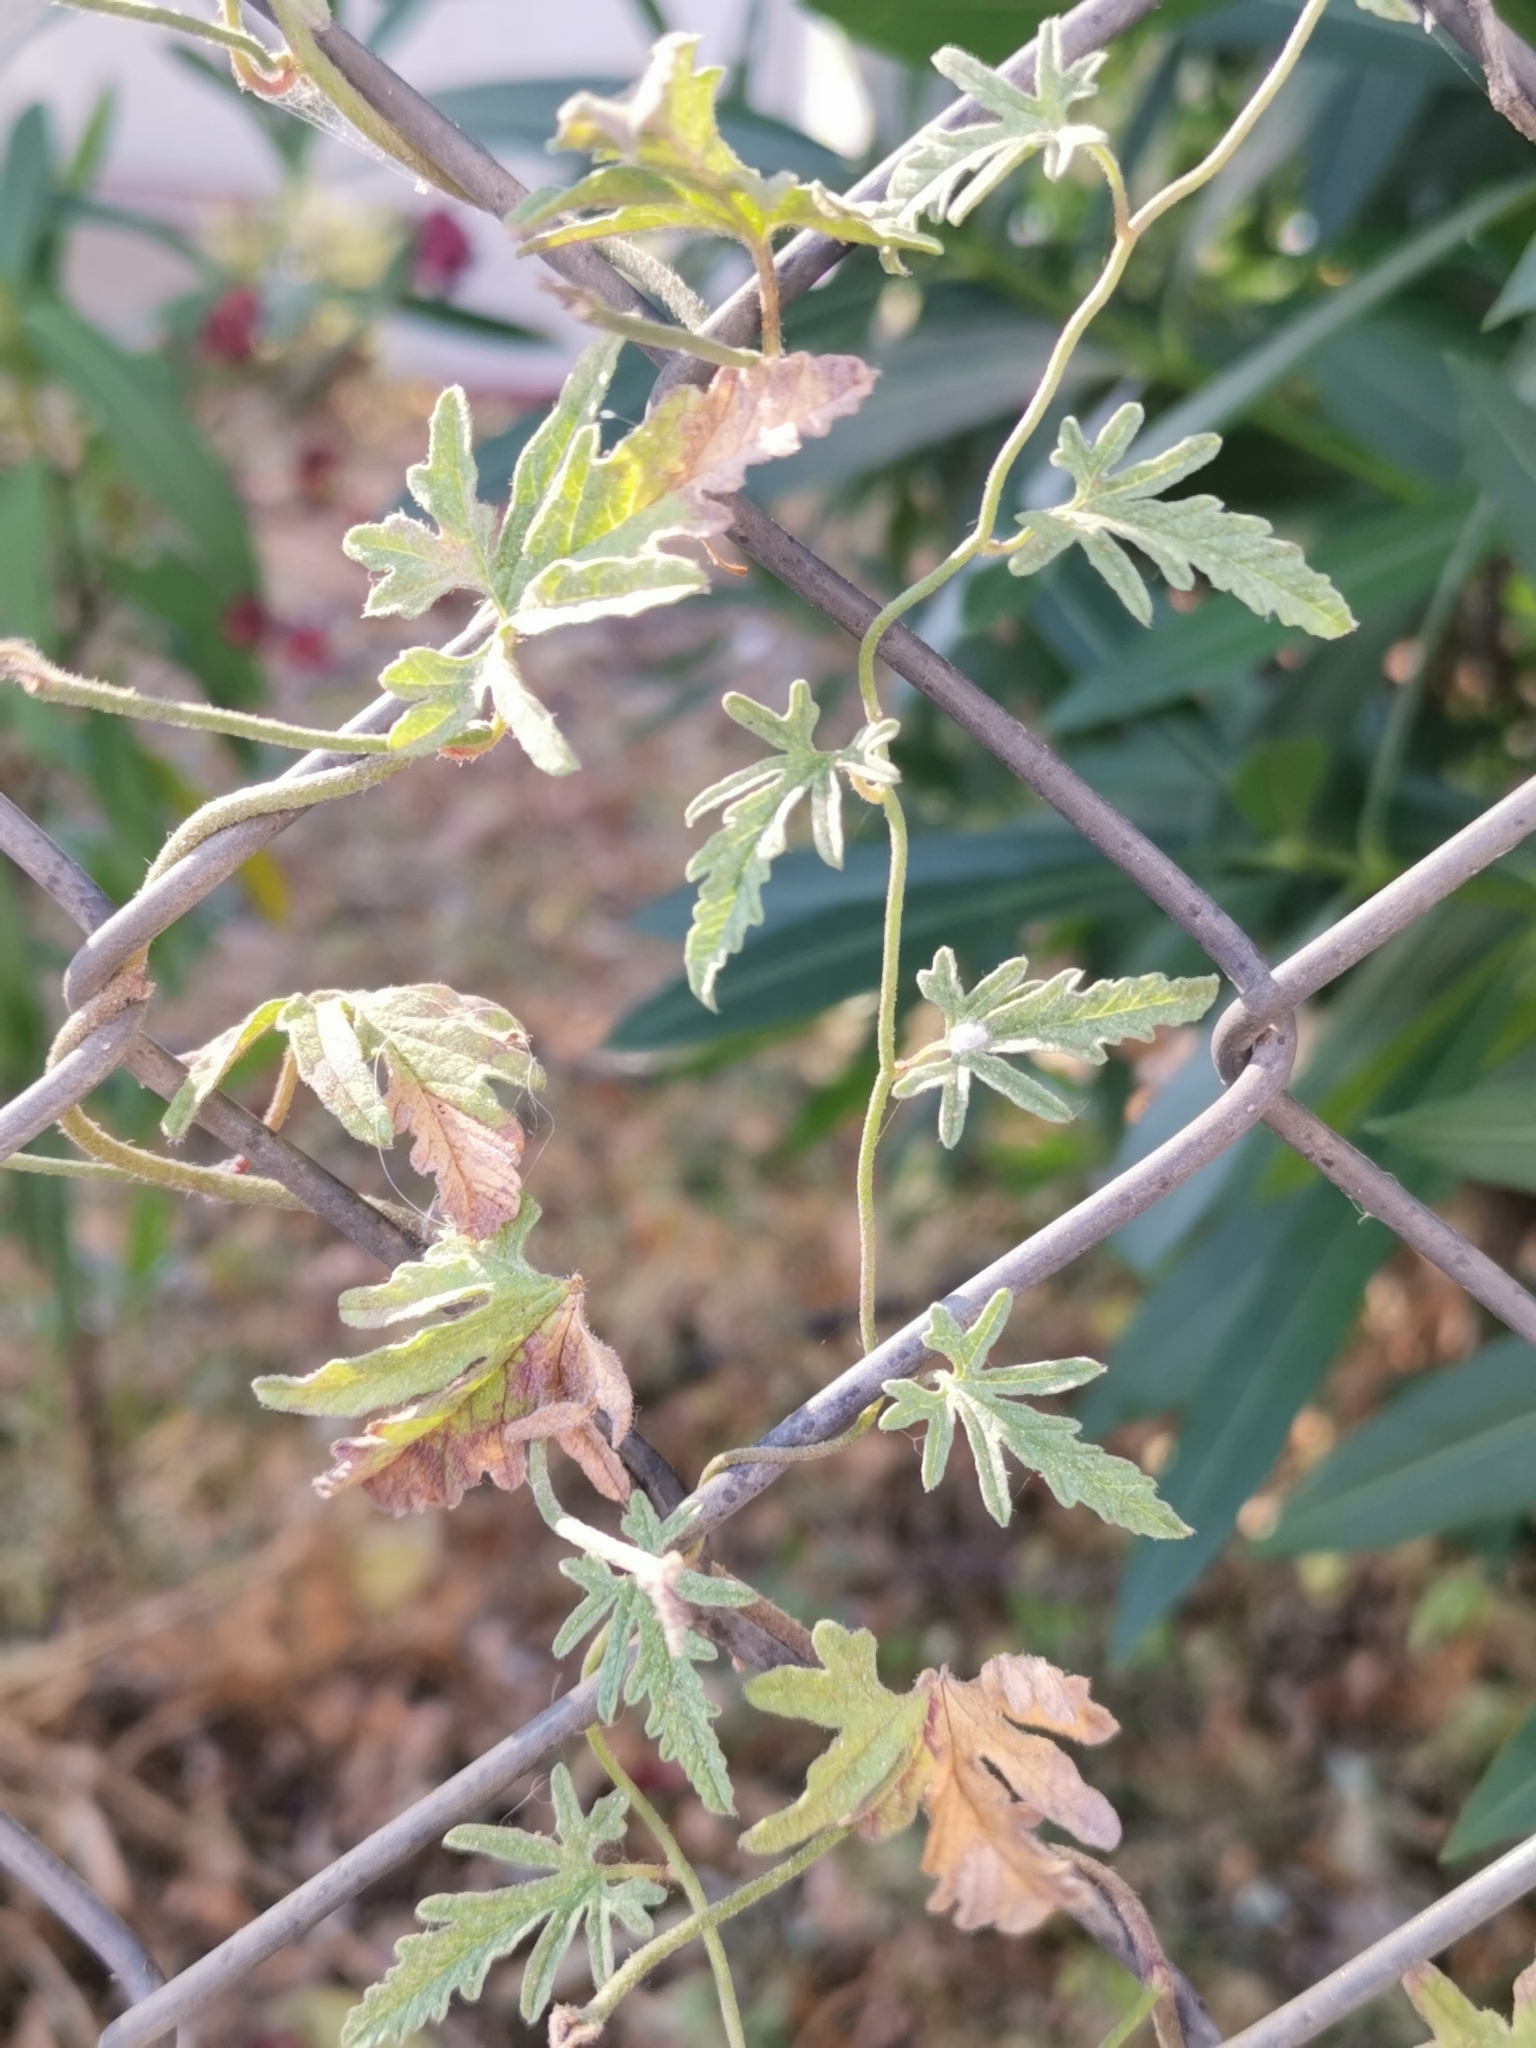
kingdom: Plantae
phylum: Tracheophyta
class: Magnoliopsida
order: Solanales
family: Convolvulaceae
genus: Convolvulus
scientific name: Convolvulus althaeoides
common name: Mallow bindweed
